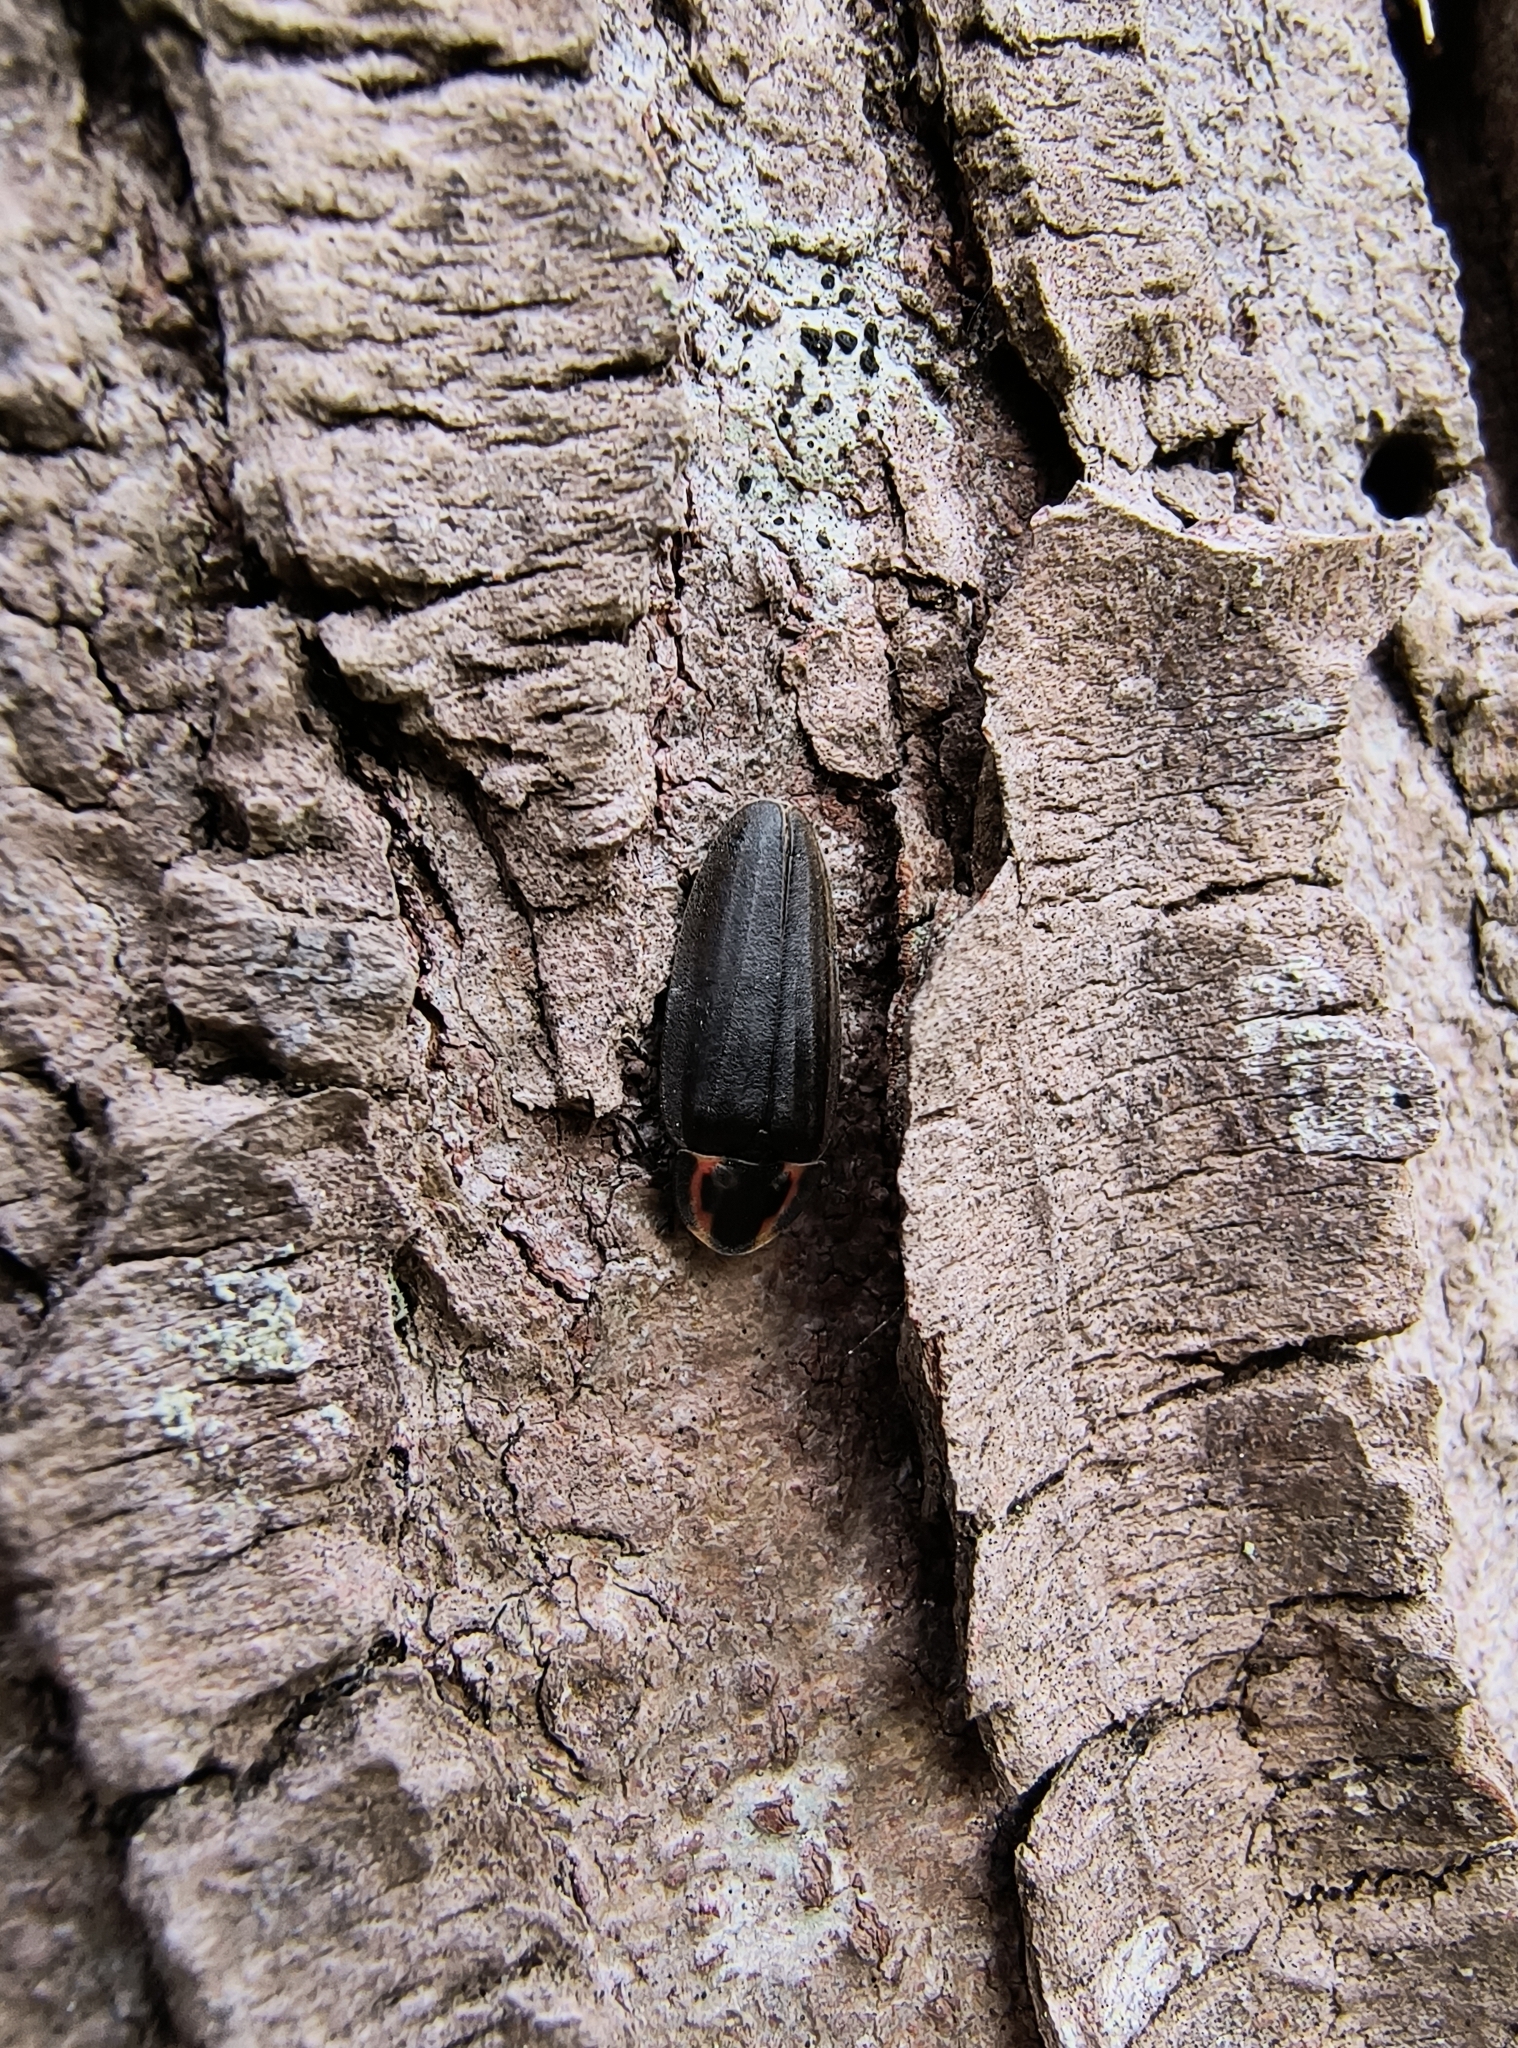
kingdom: Animalia
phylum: Arthropoda
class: Insecta
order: Coleoptera
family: Lampyridae
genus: Photinus
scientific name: Photinus corrusca
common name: Winter firefly
